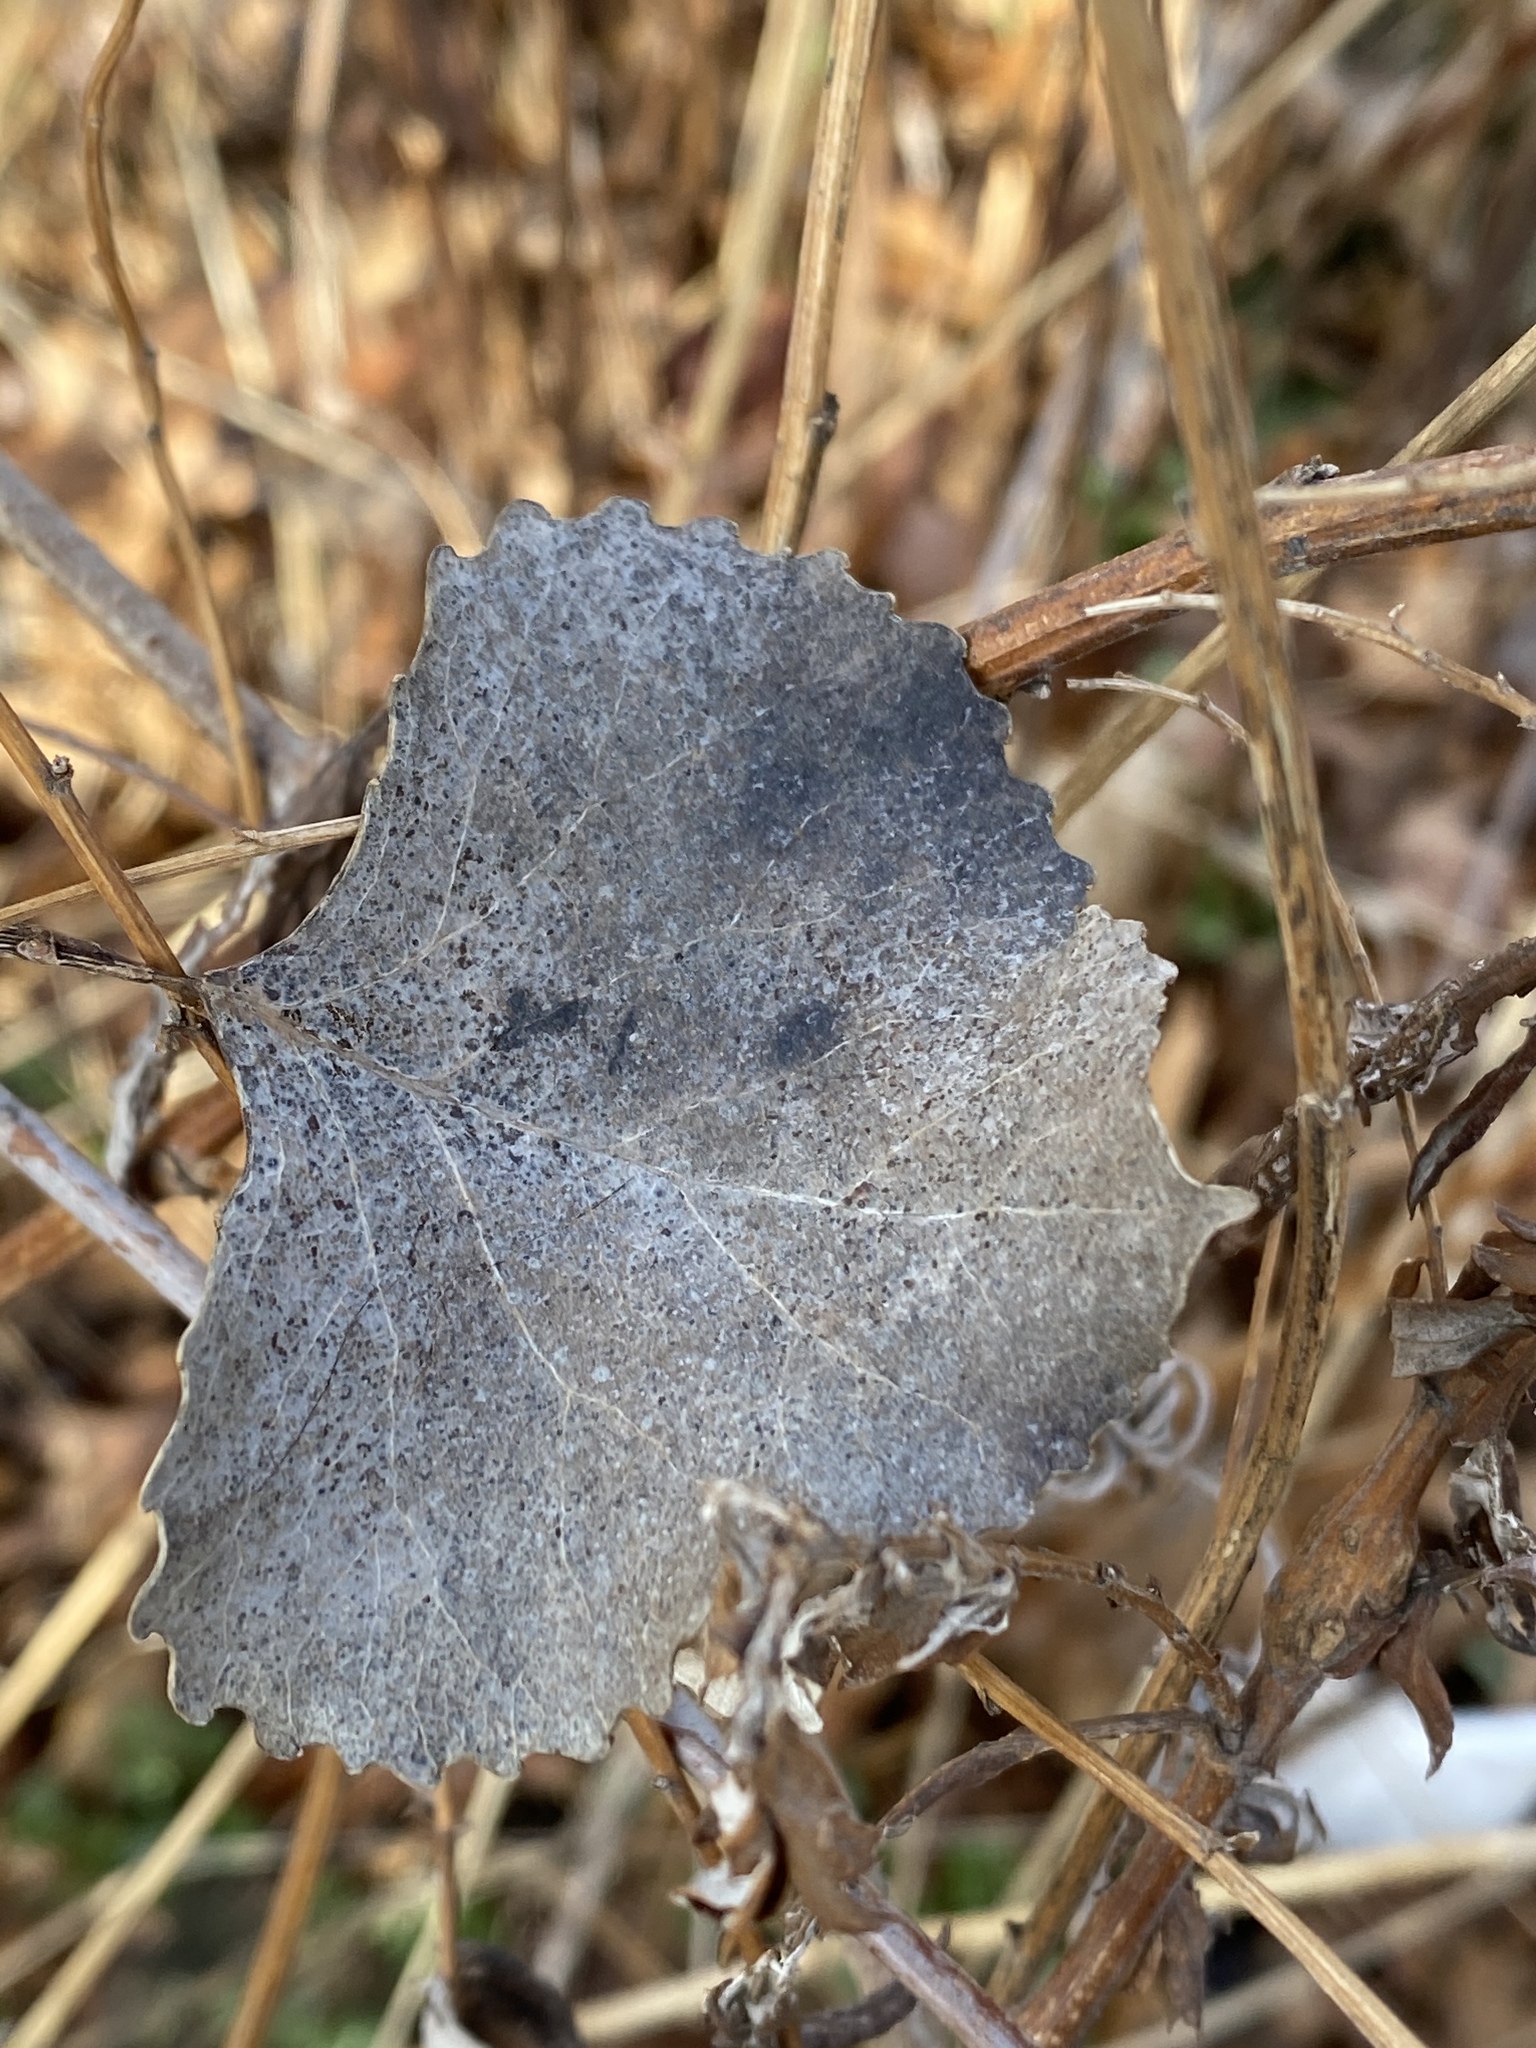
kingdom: Plantae
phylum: Tracheophyta
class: Magnoliopsida
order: Malpighiales
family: Salicaceae
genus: Populus
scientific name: Populus deltoides
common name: Eastern cottonwood
